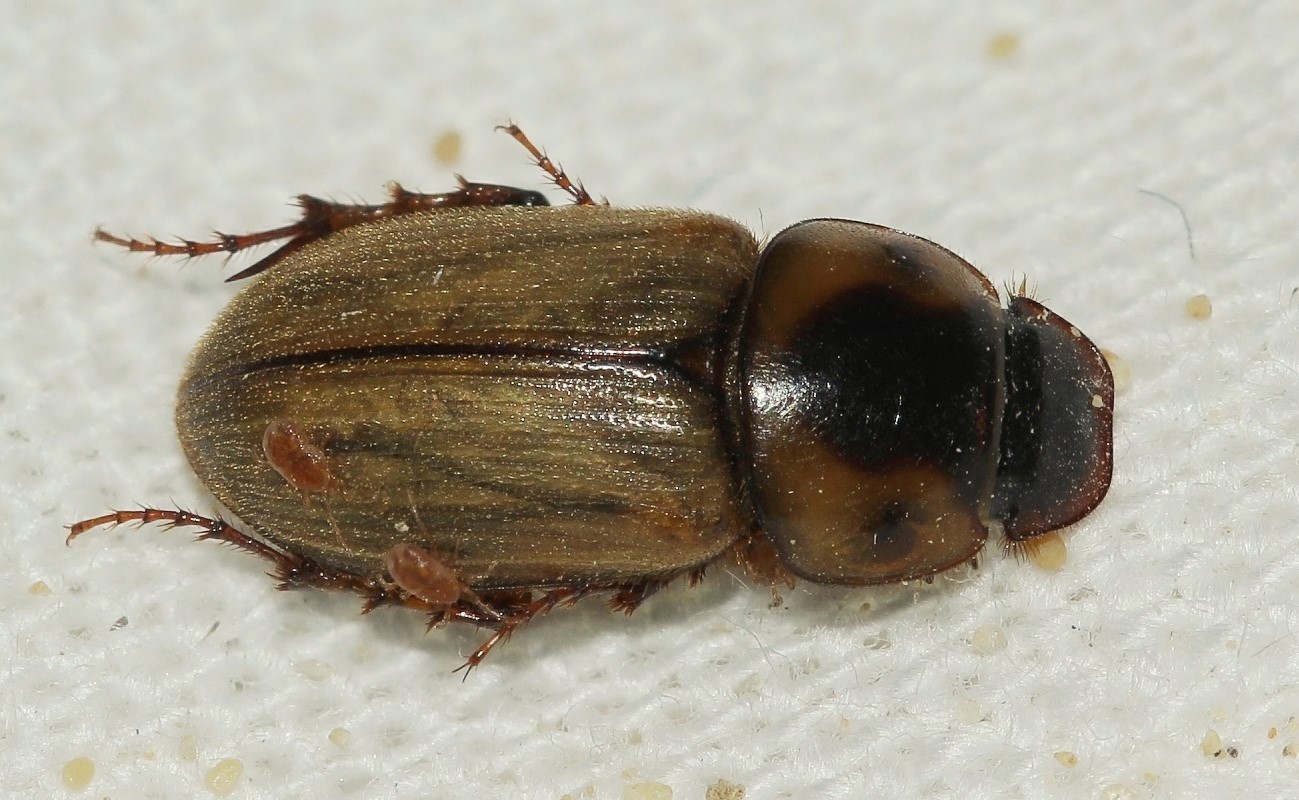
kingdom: Animalia
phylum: Arthropoda
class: Insecta
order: Coleoptera
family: Scarabaeidae
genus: Bodilus
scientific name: Bodilus gregarius
